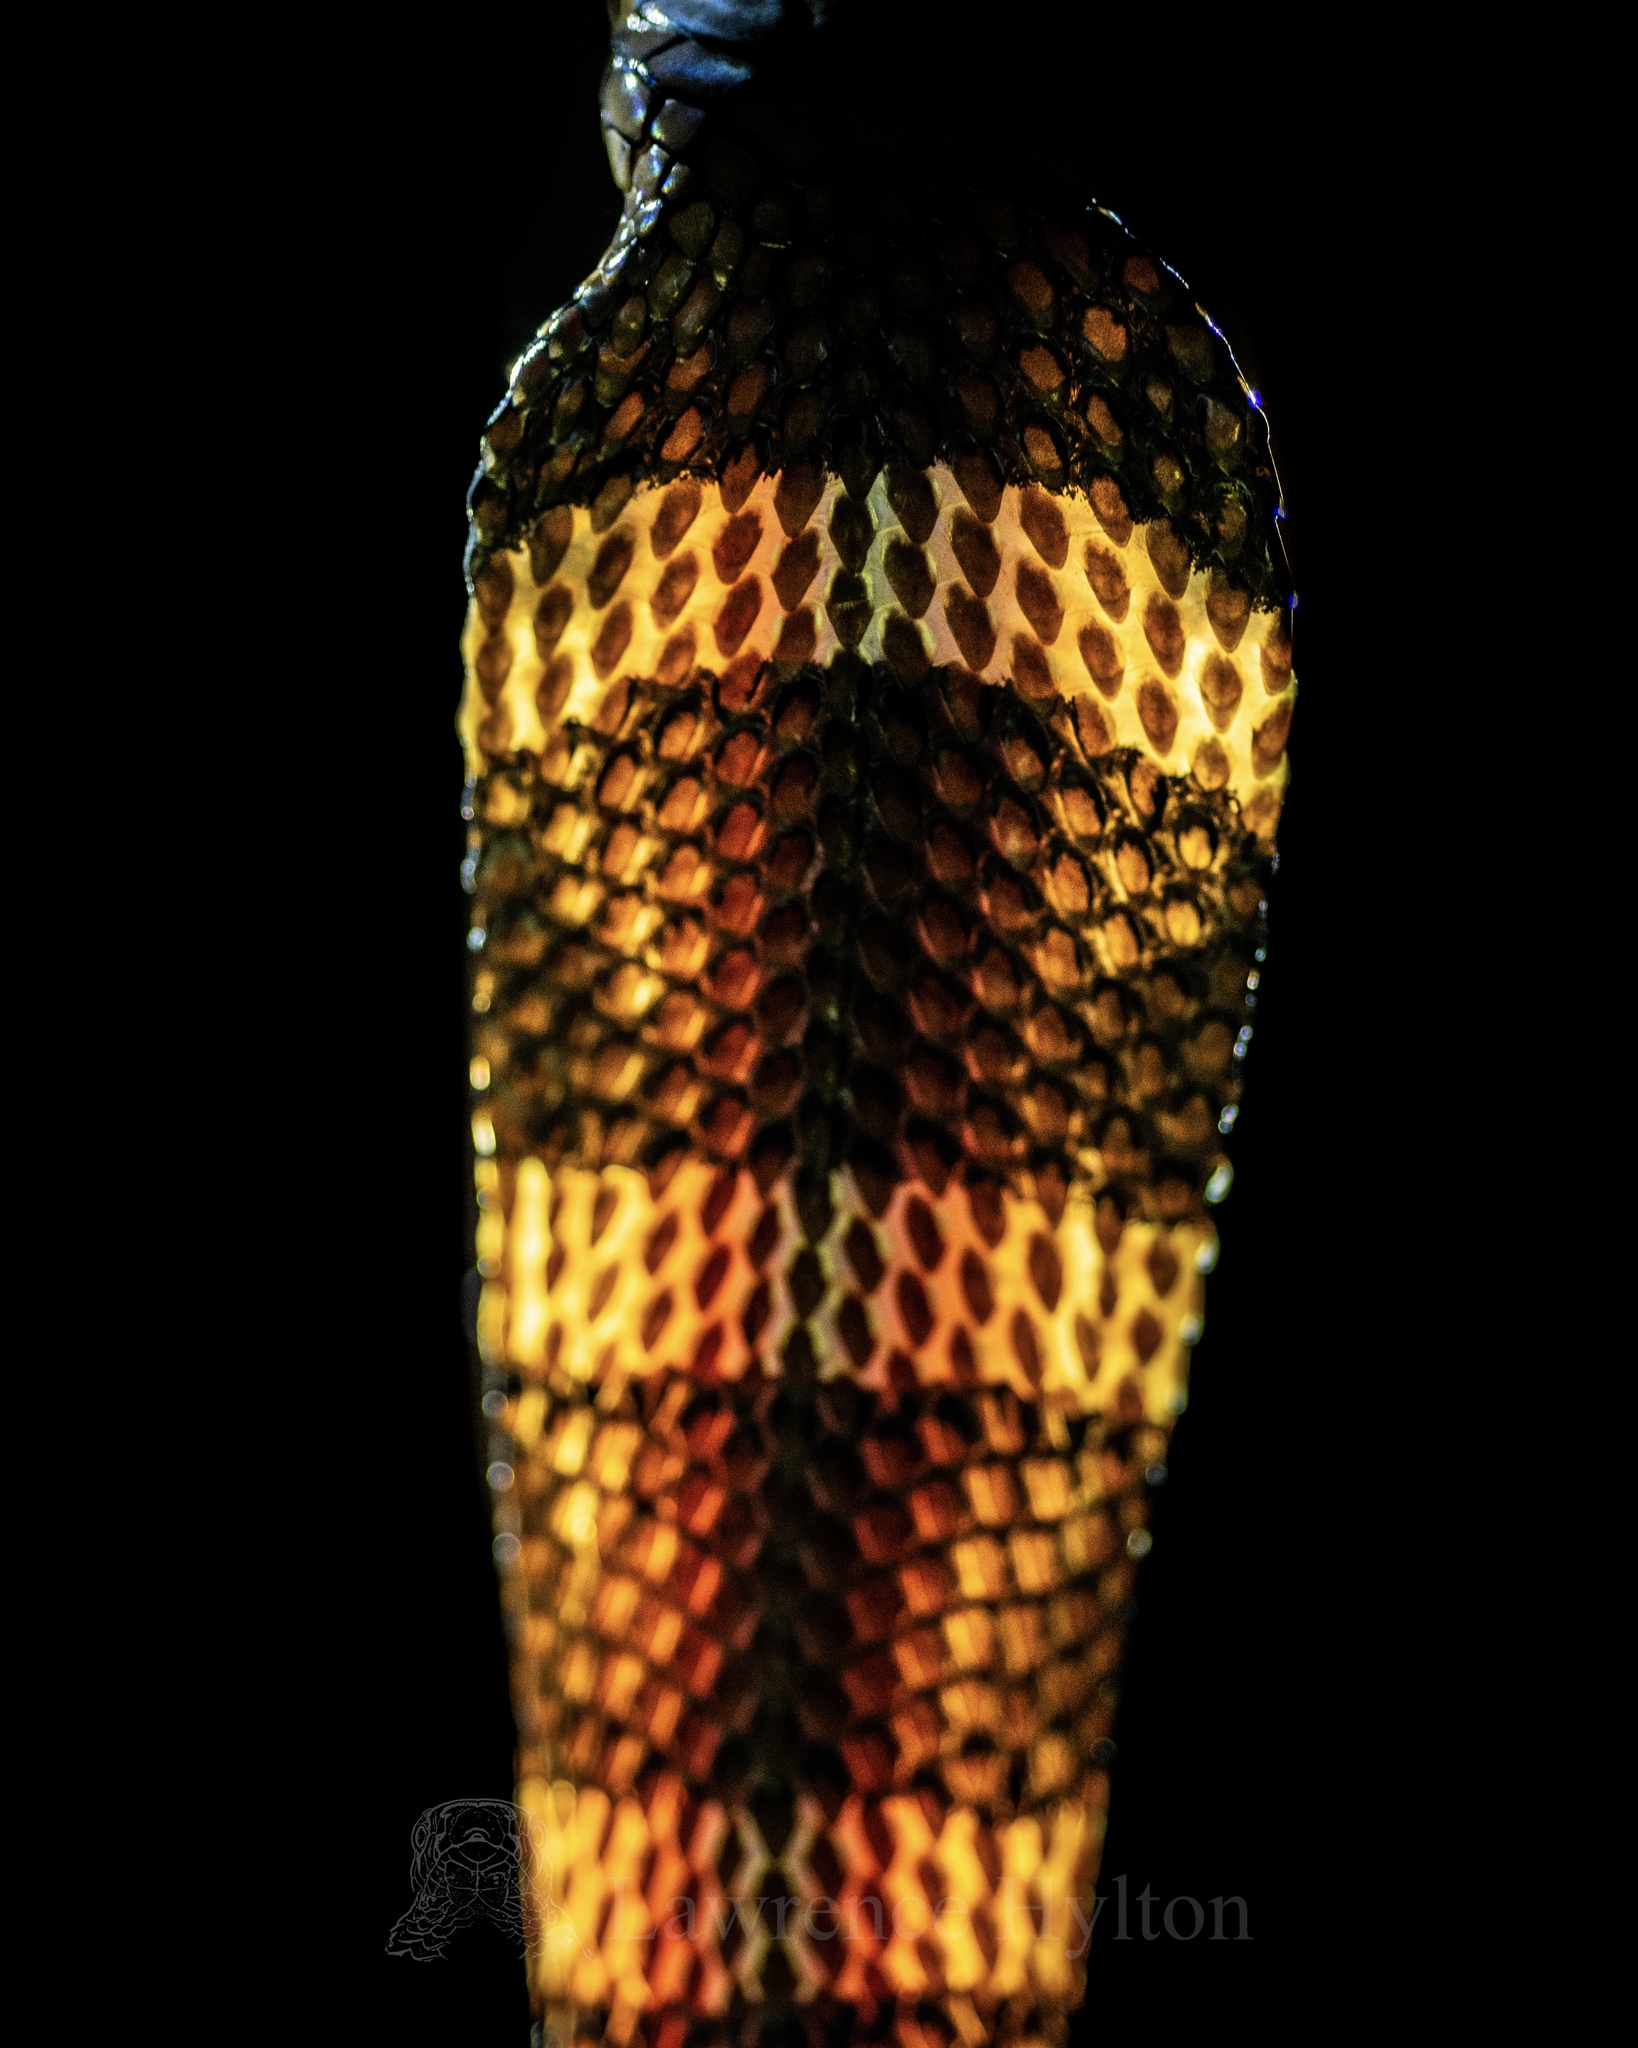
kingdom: Animalia
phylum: Chordata
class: Squamata
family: Elapidae
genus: Ophiophagus
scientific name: Ophiophagus hannah
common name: Hamadryad
